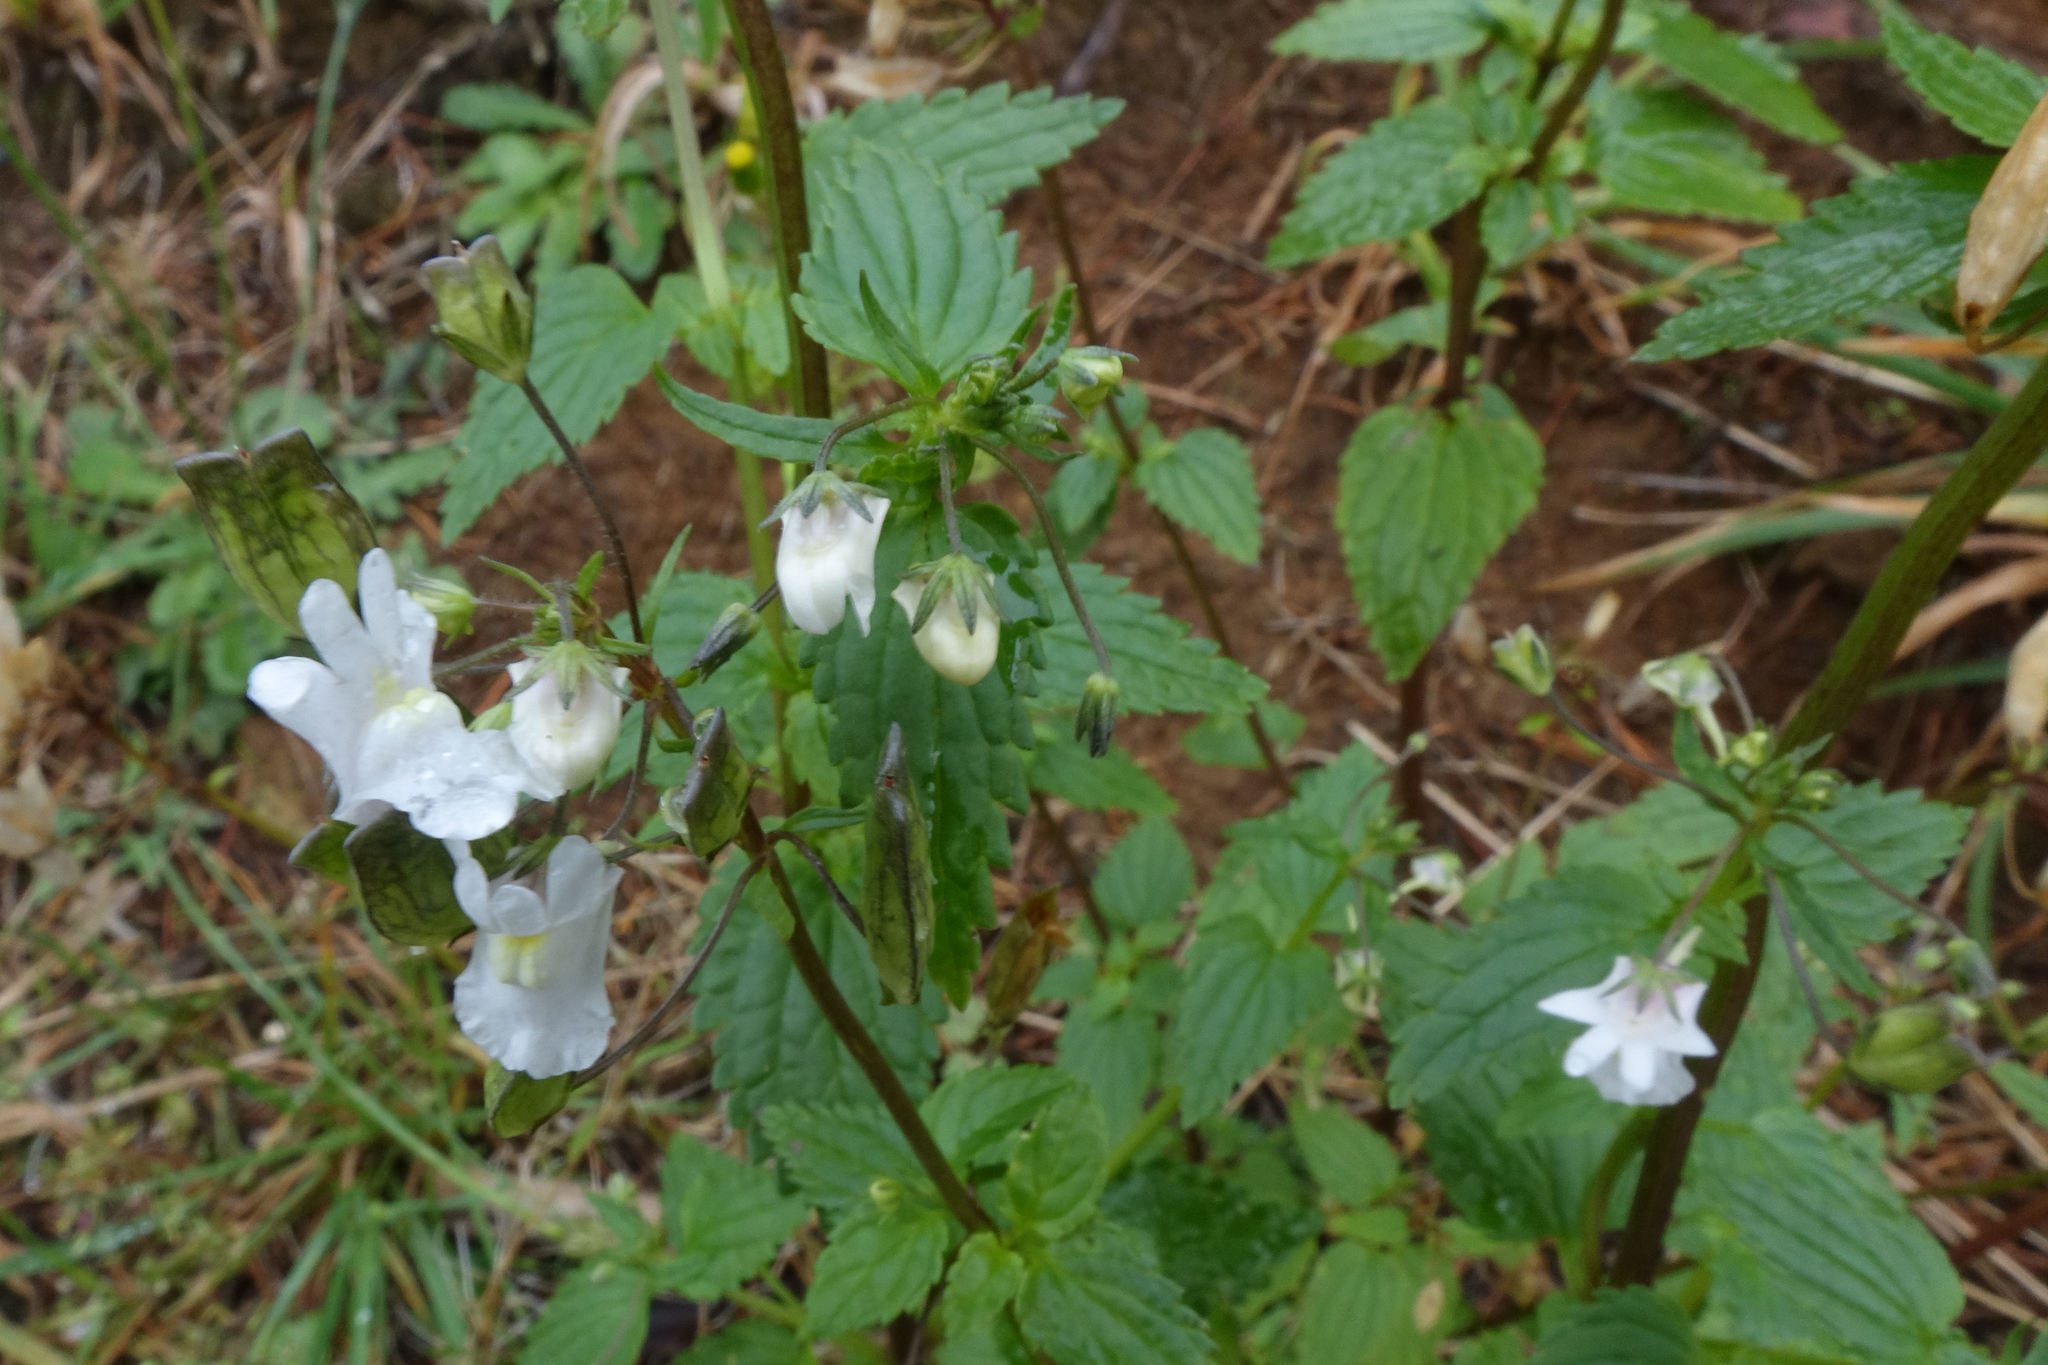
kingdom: Plantae
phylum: Tracheophyta
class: Magnoliopsida
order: Lamiales
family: Scrophulariaceae
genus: Nemesia
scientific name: Nemesia floribunda
